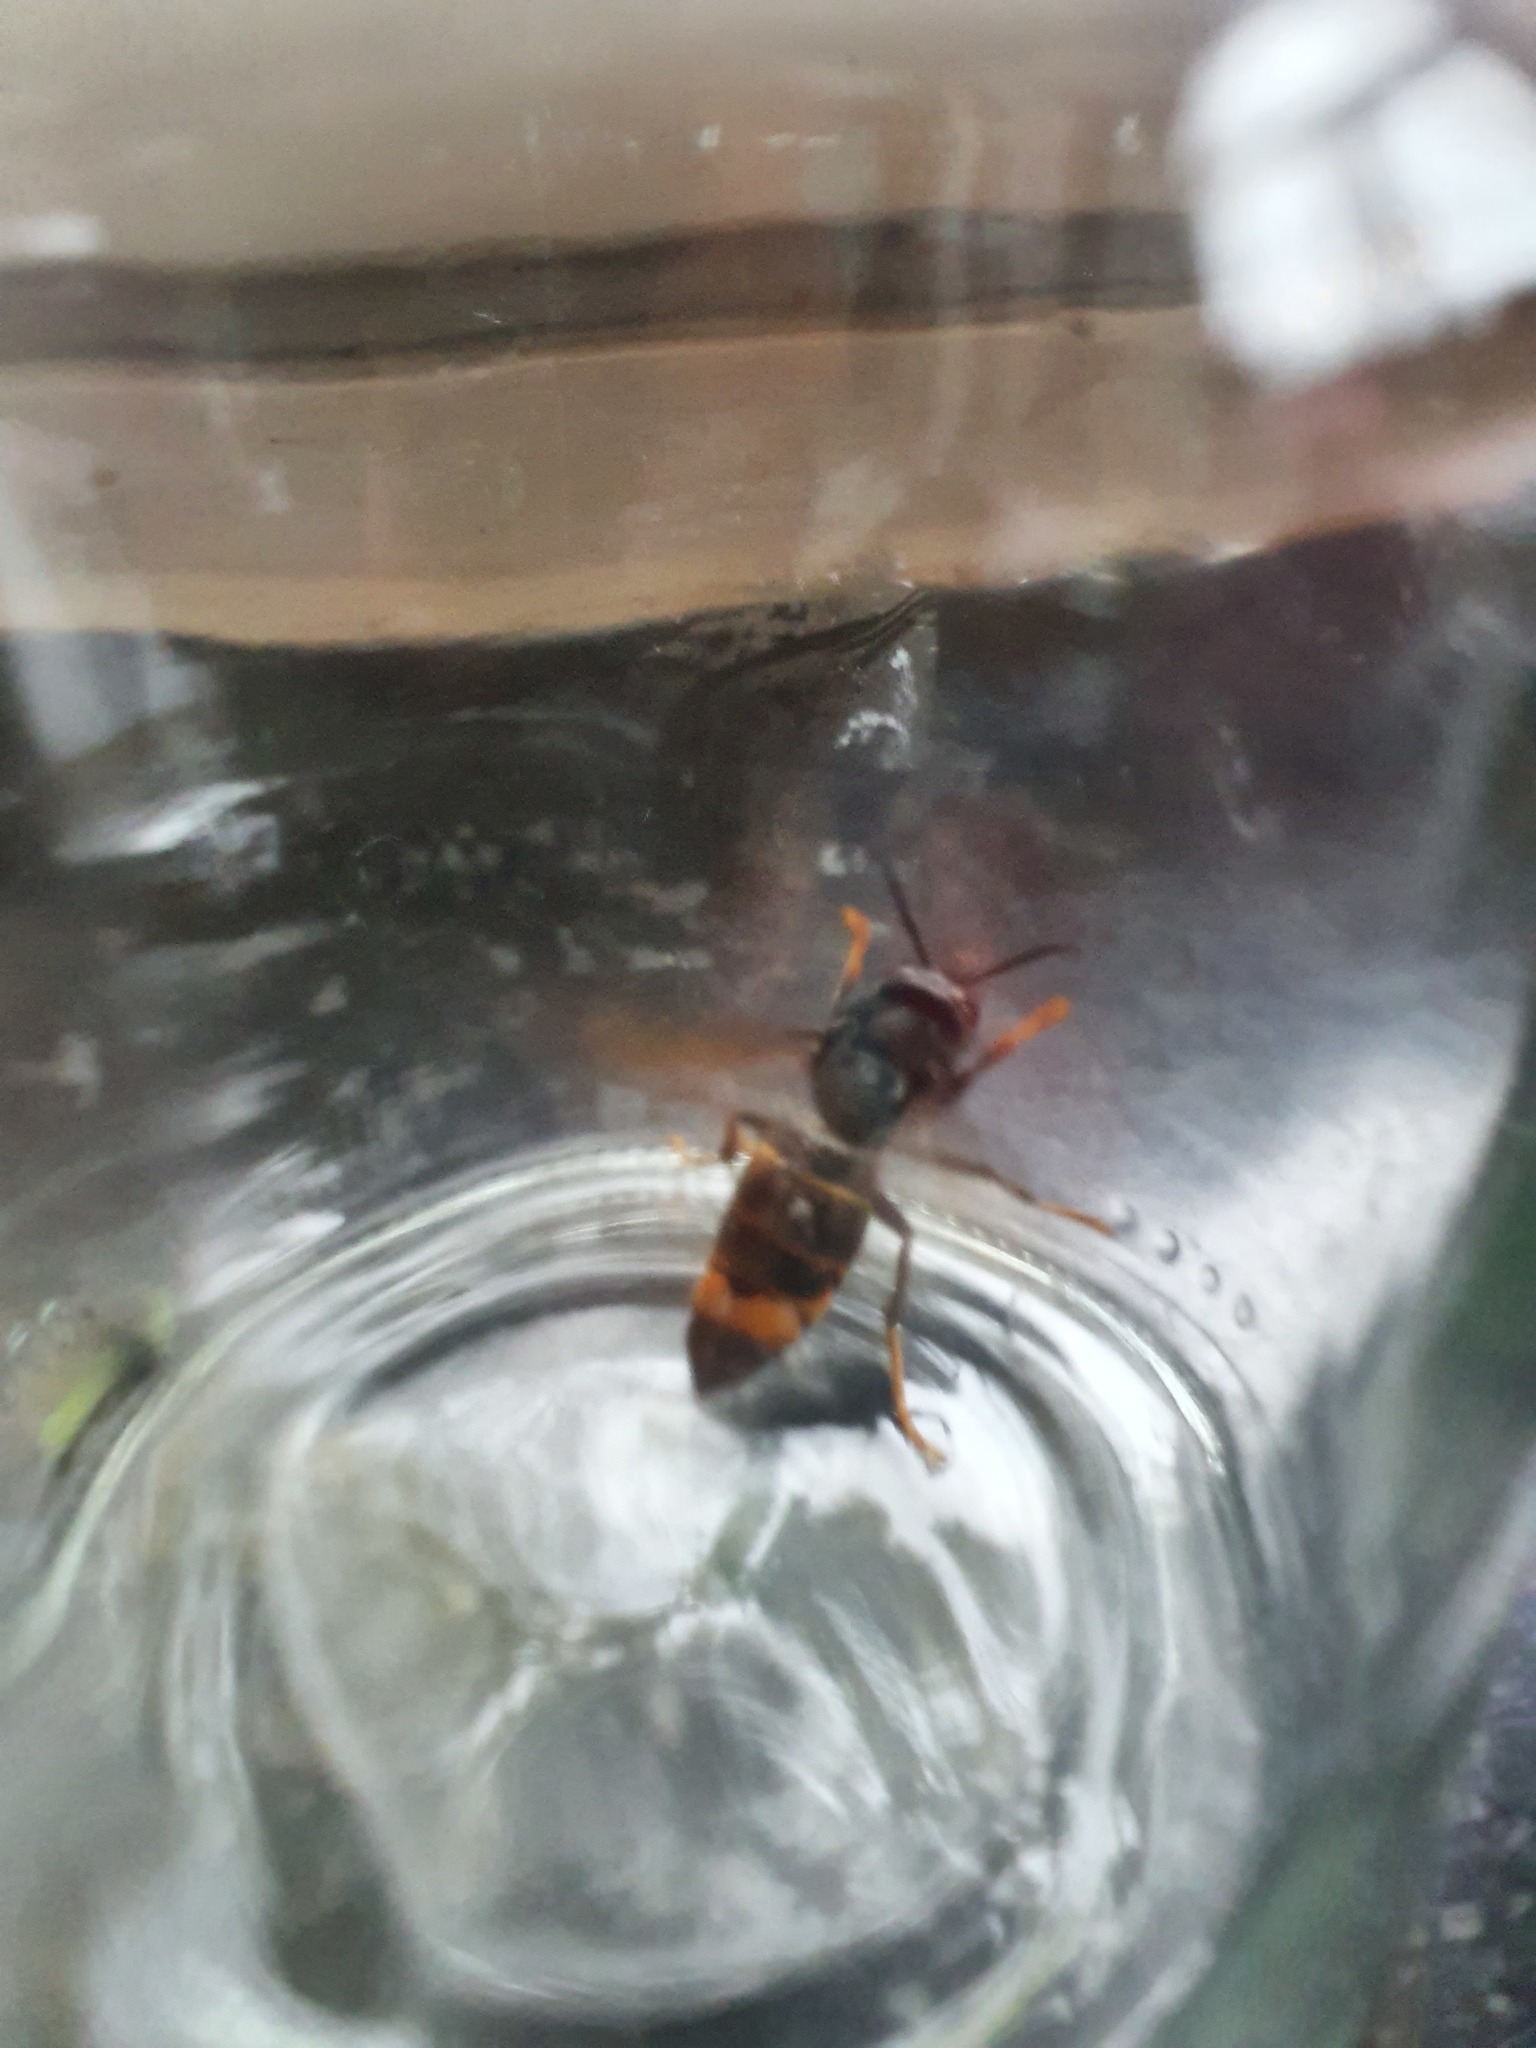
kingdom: Animalia
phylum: Arthropoda
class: Insecta
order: Hymenoptera
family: Vespidae
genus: Vespa
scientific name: Vespa velutina
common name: Asian hornet
